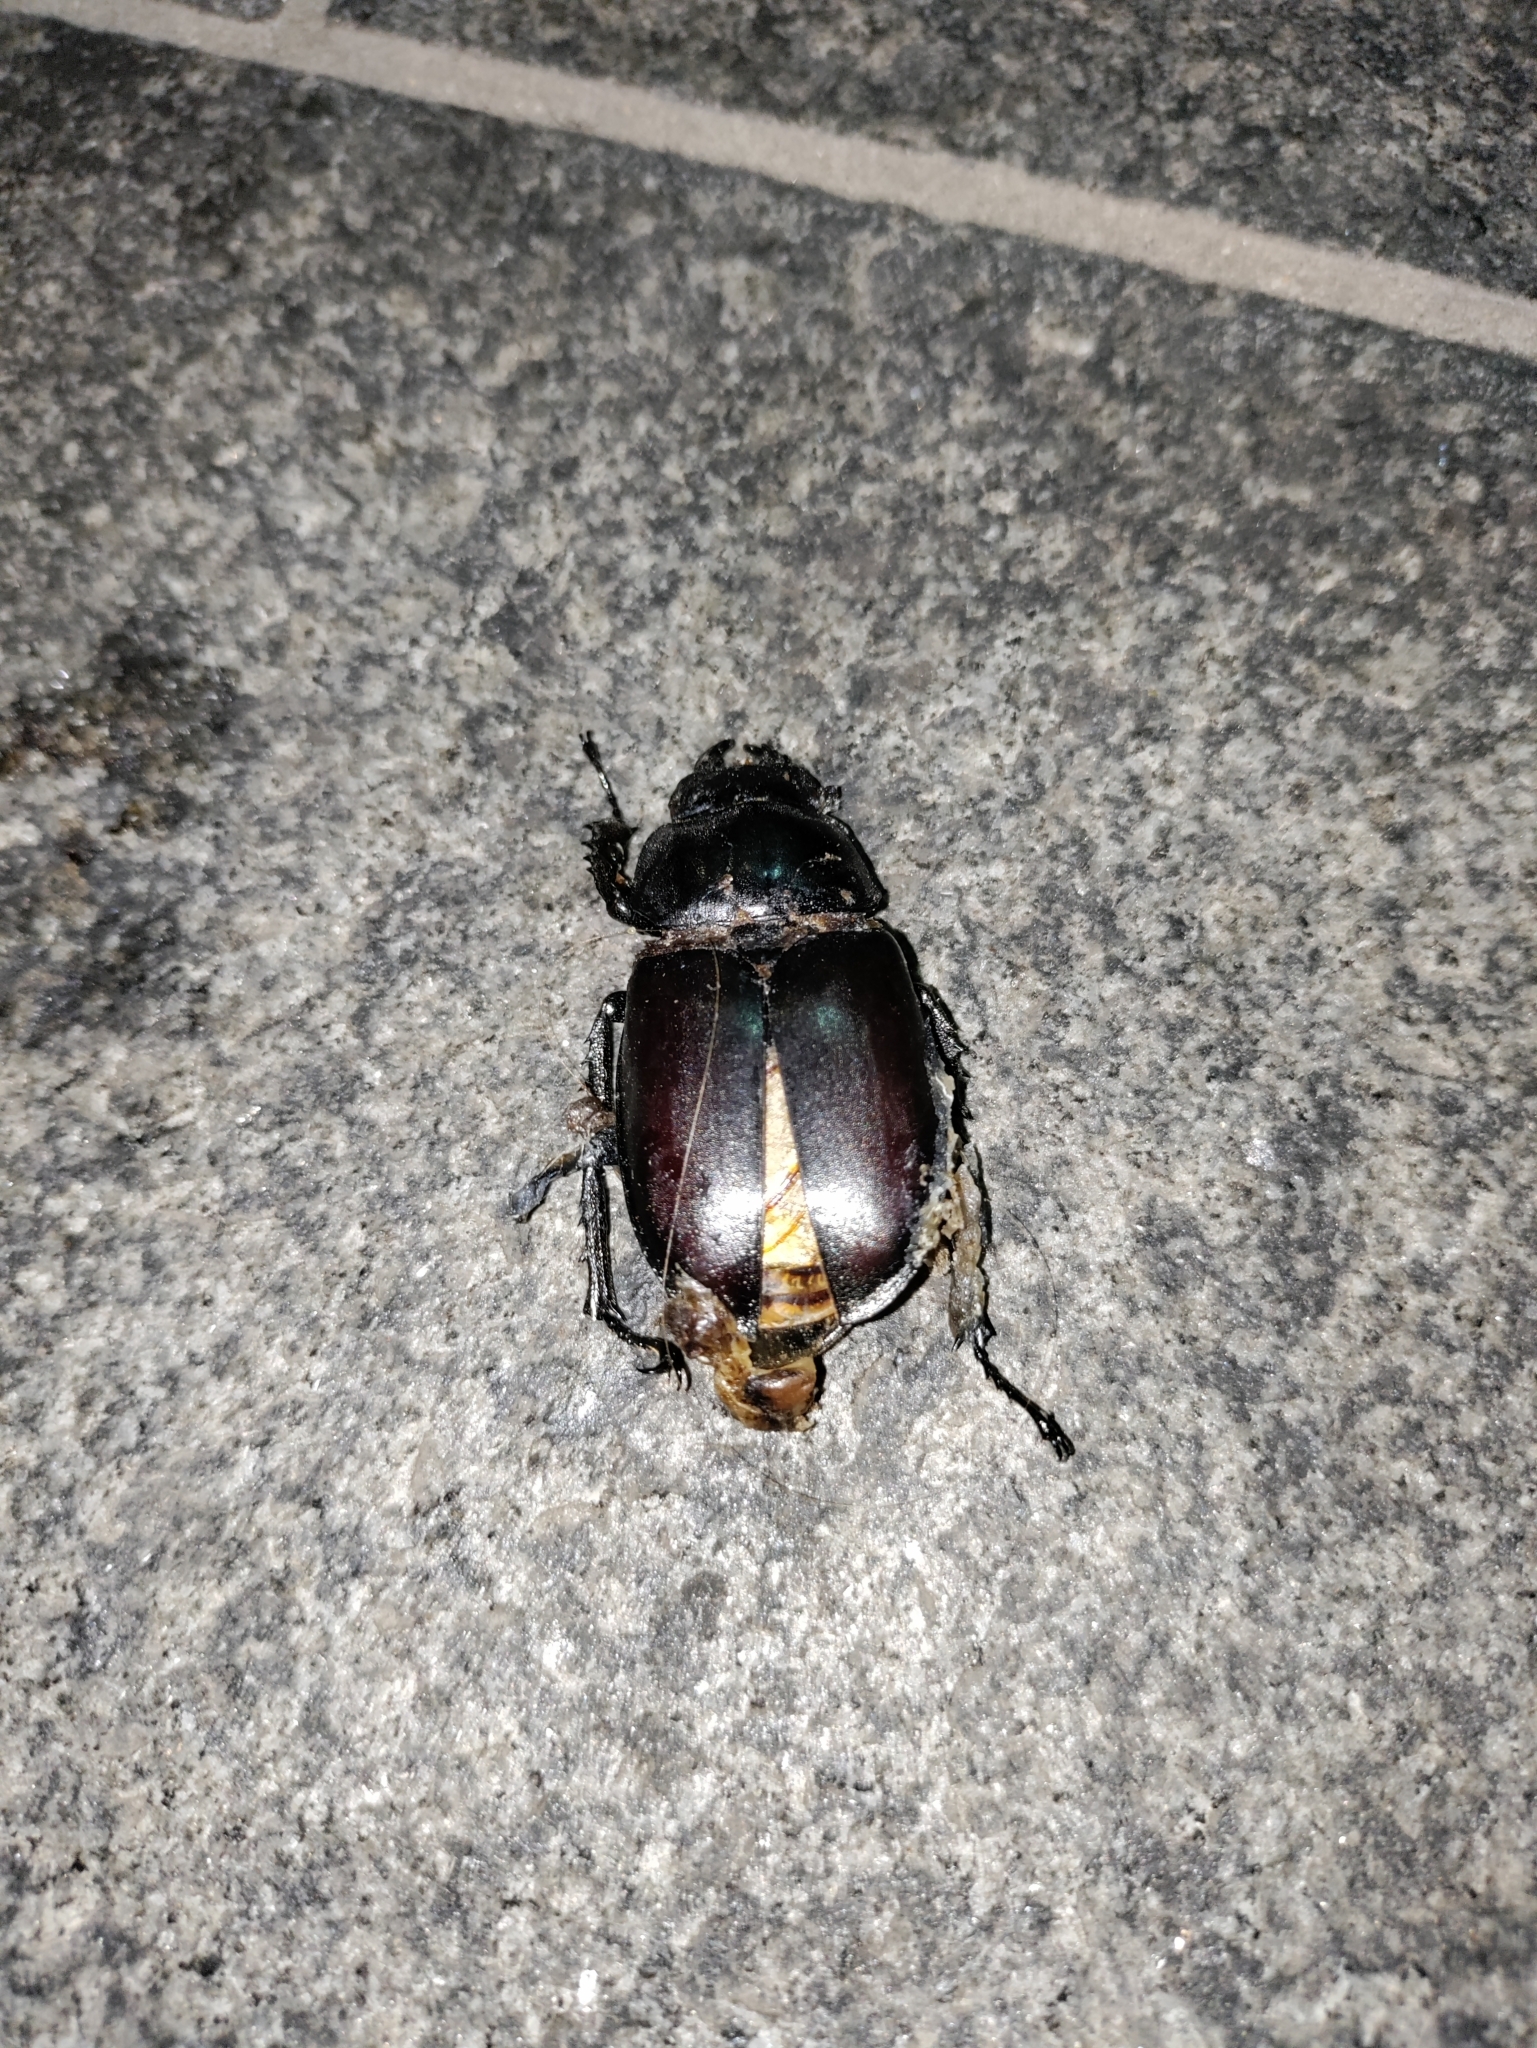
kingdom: Animalia
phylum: Arthropoda
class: Insecta
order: Coleoptera
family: Lucanidae
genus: Lucanus
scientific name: Lucanus cervus
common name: Stag beetle
